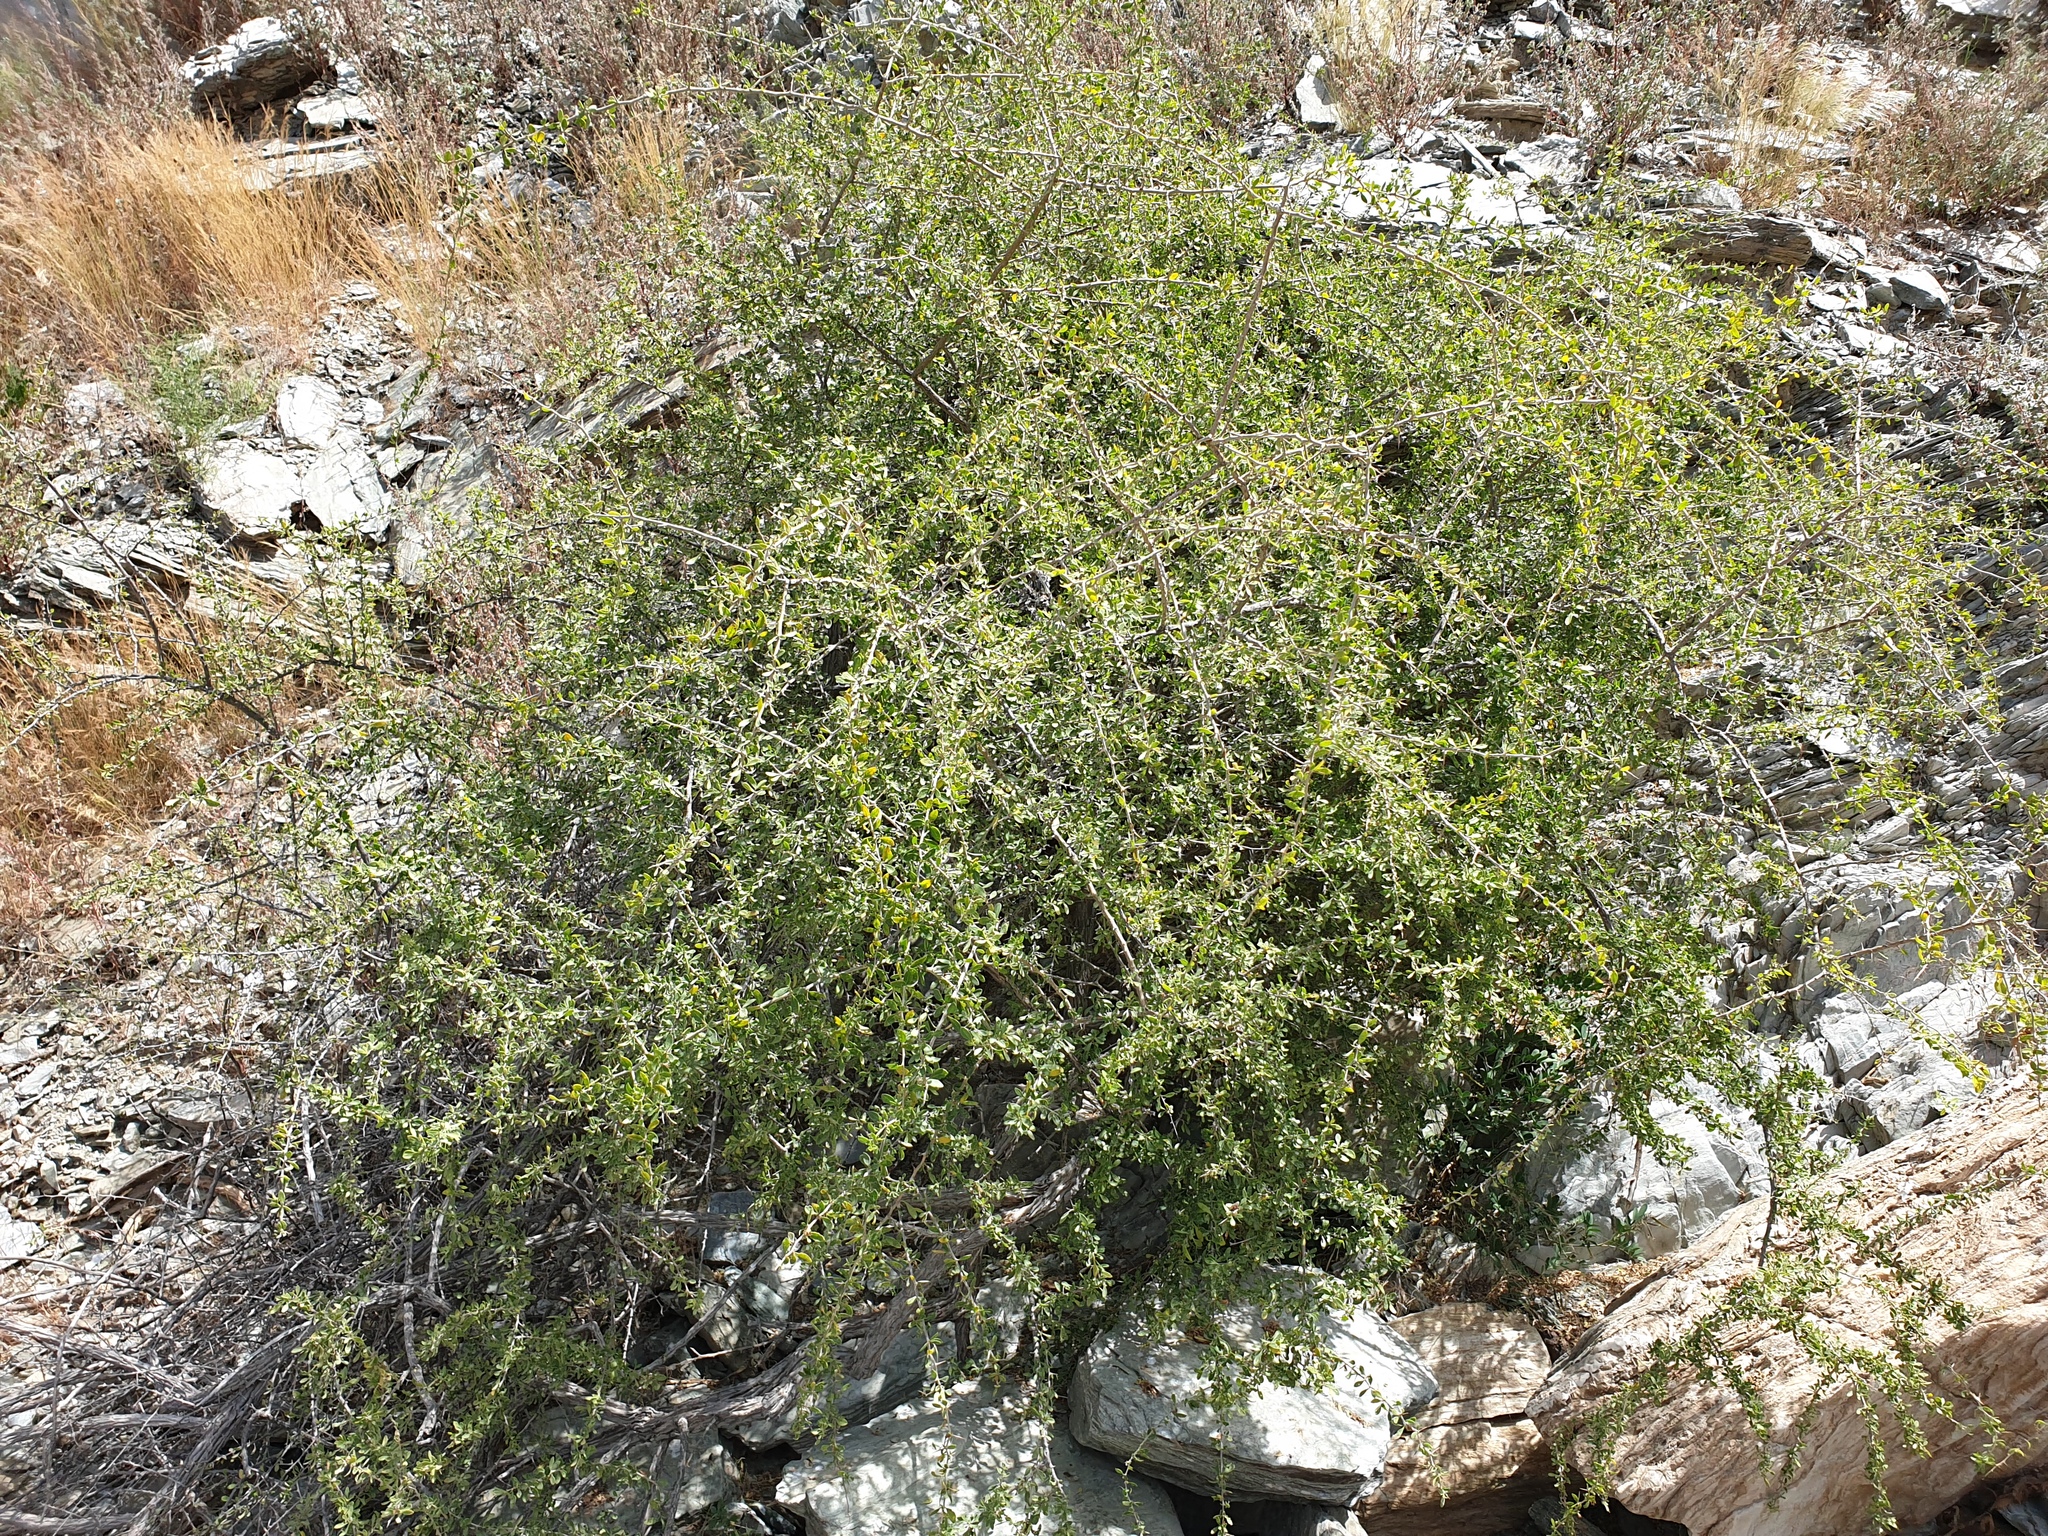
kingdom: Plantae
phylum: Tracheophyta
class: Magnoliopsida
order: Solanales
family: Solanaceae
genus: Lycium
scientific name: Lycium shawii
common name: Boxthorn
